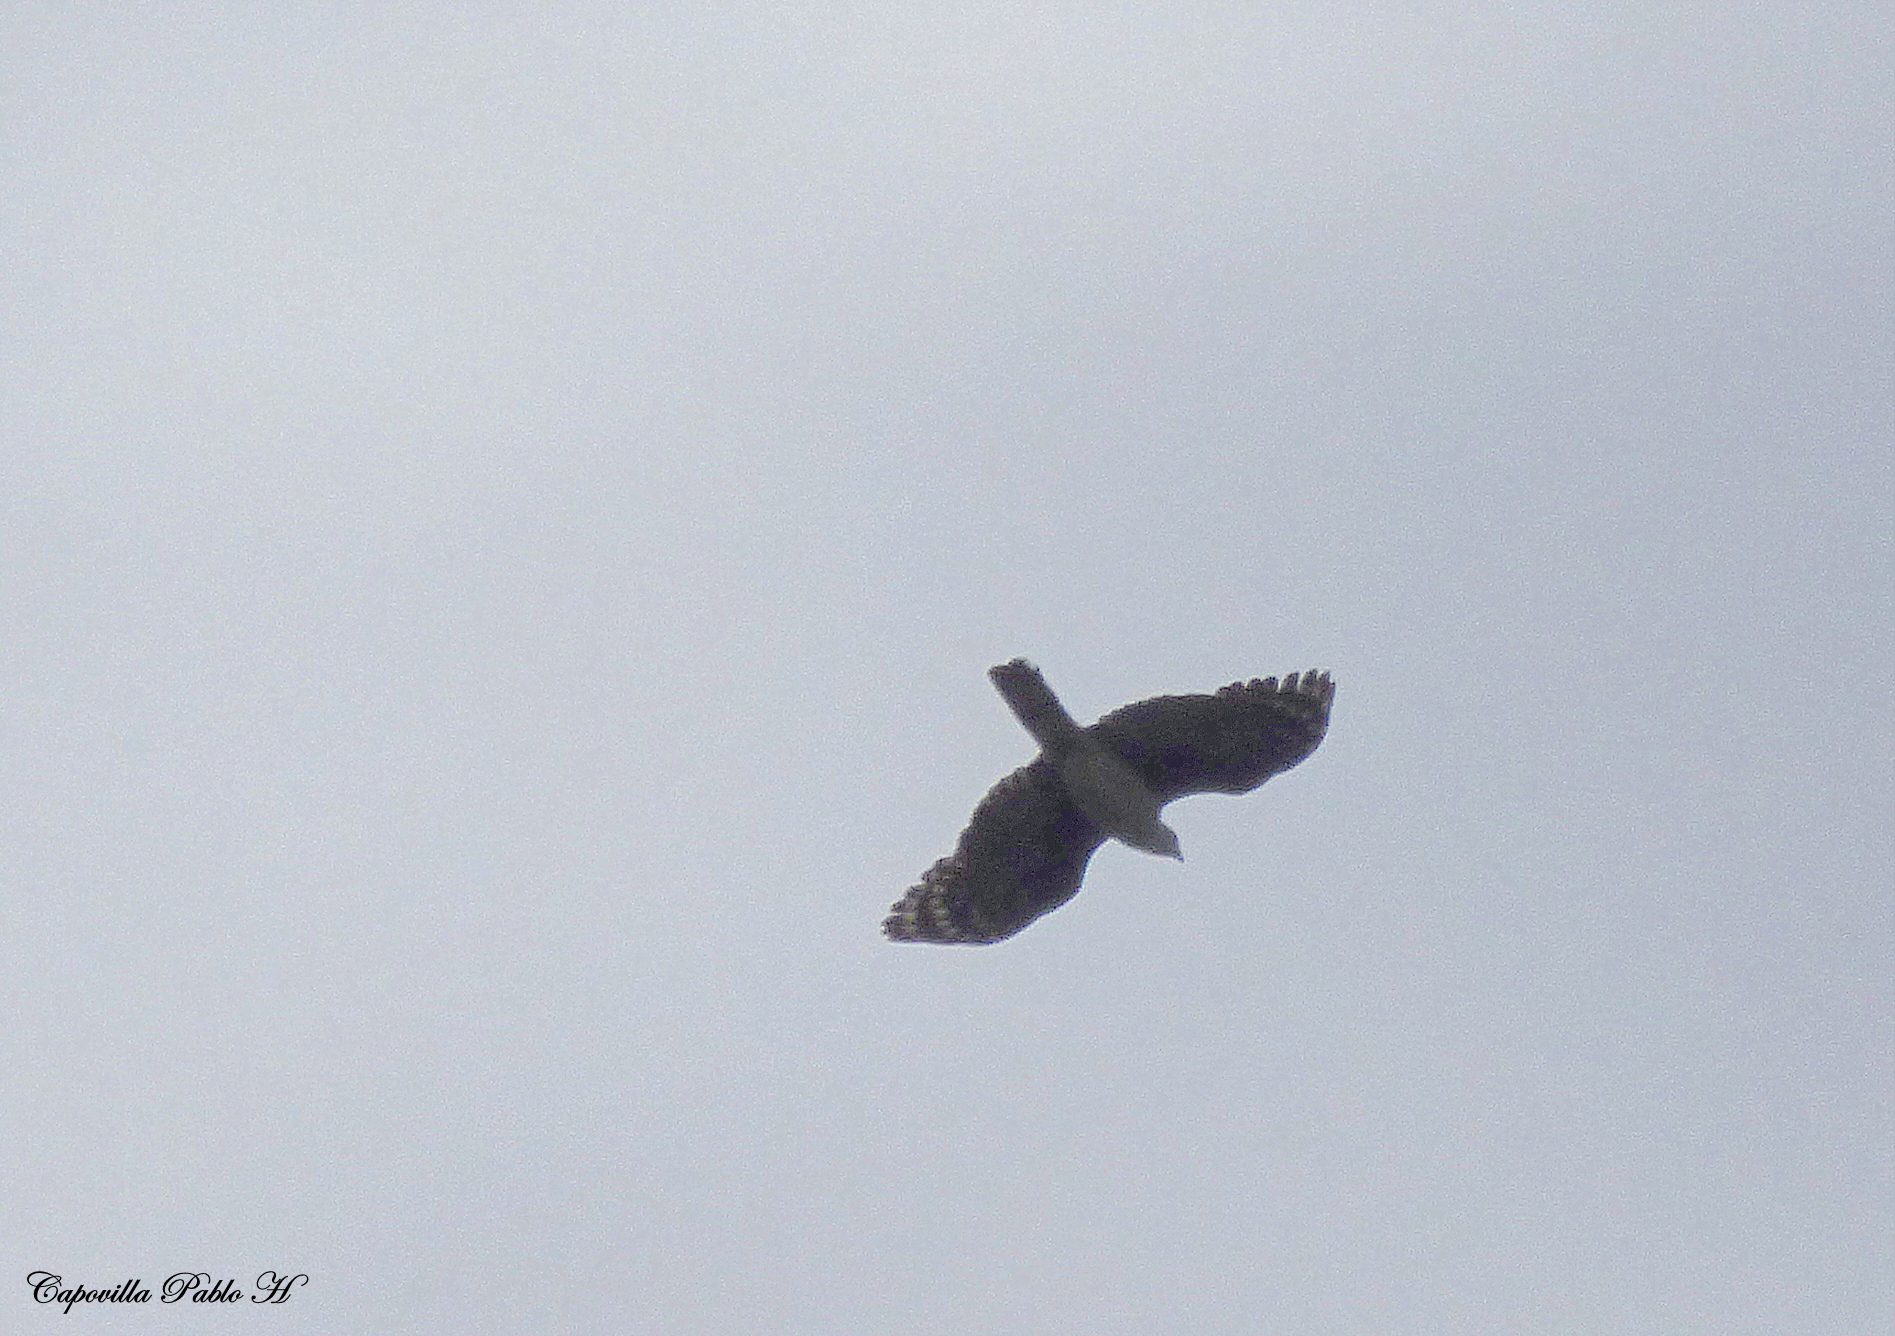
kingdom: Animalia
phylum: Chordata
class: Aves
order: Accipitriformes
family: Accipitridae
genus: Leptodon
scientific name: Leptodon cayanensis
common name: Gray-headed kite
